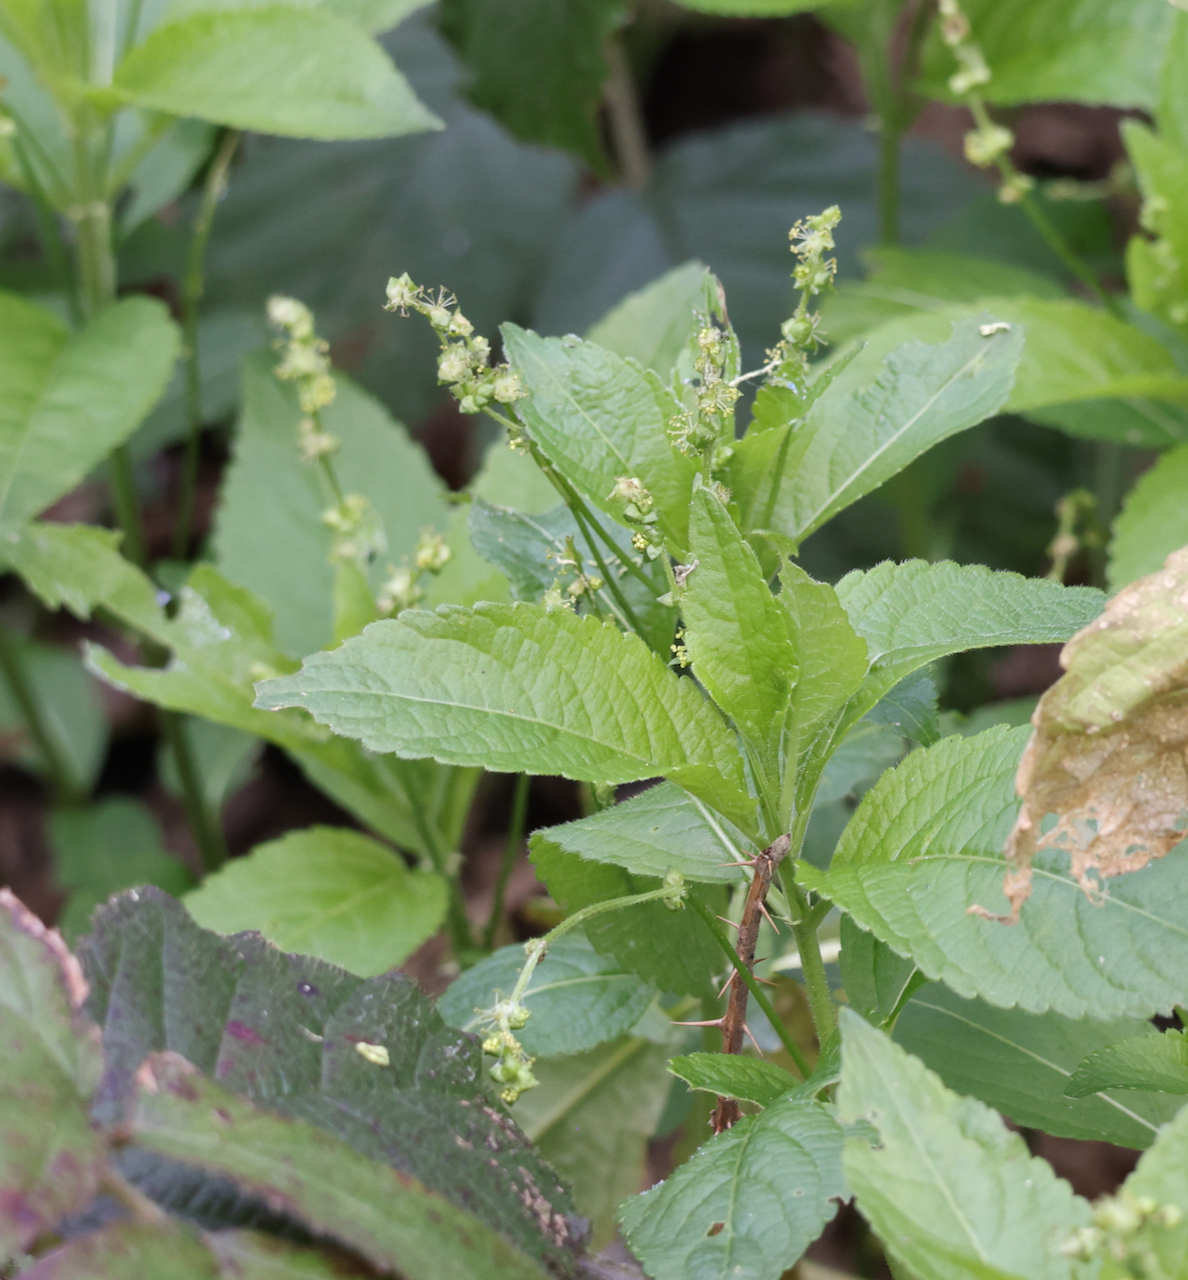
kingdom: Plantae
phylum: Tracheophyta
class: Magnoliopsida
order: Malpighiales
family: Euphorbiaceae
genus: Mercurialis
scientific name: Mercurialis perennis
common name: Dog mercury
